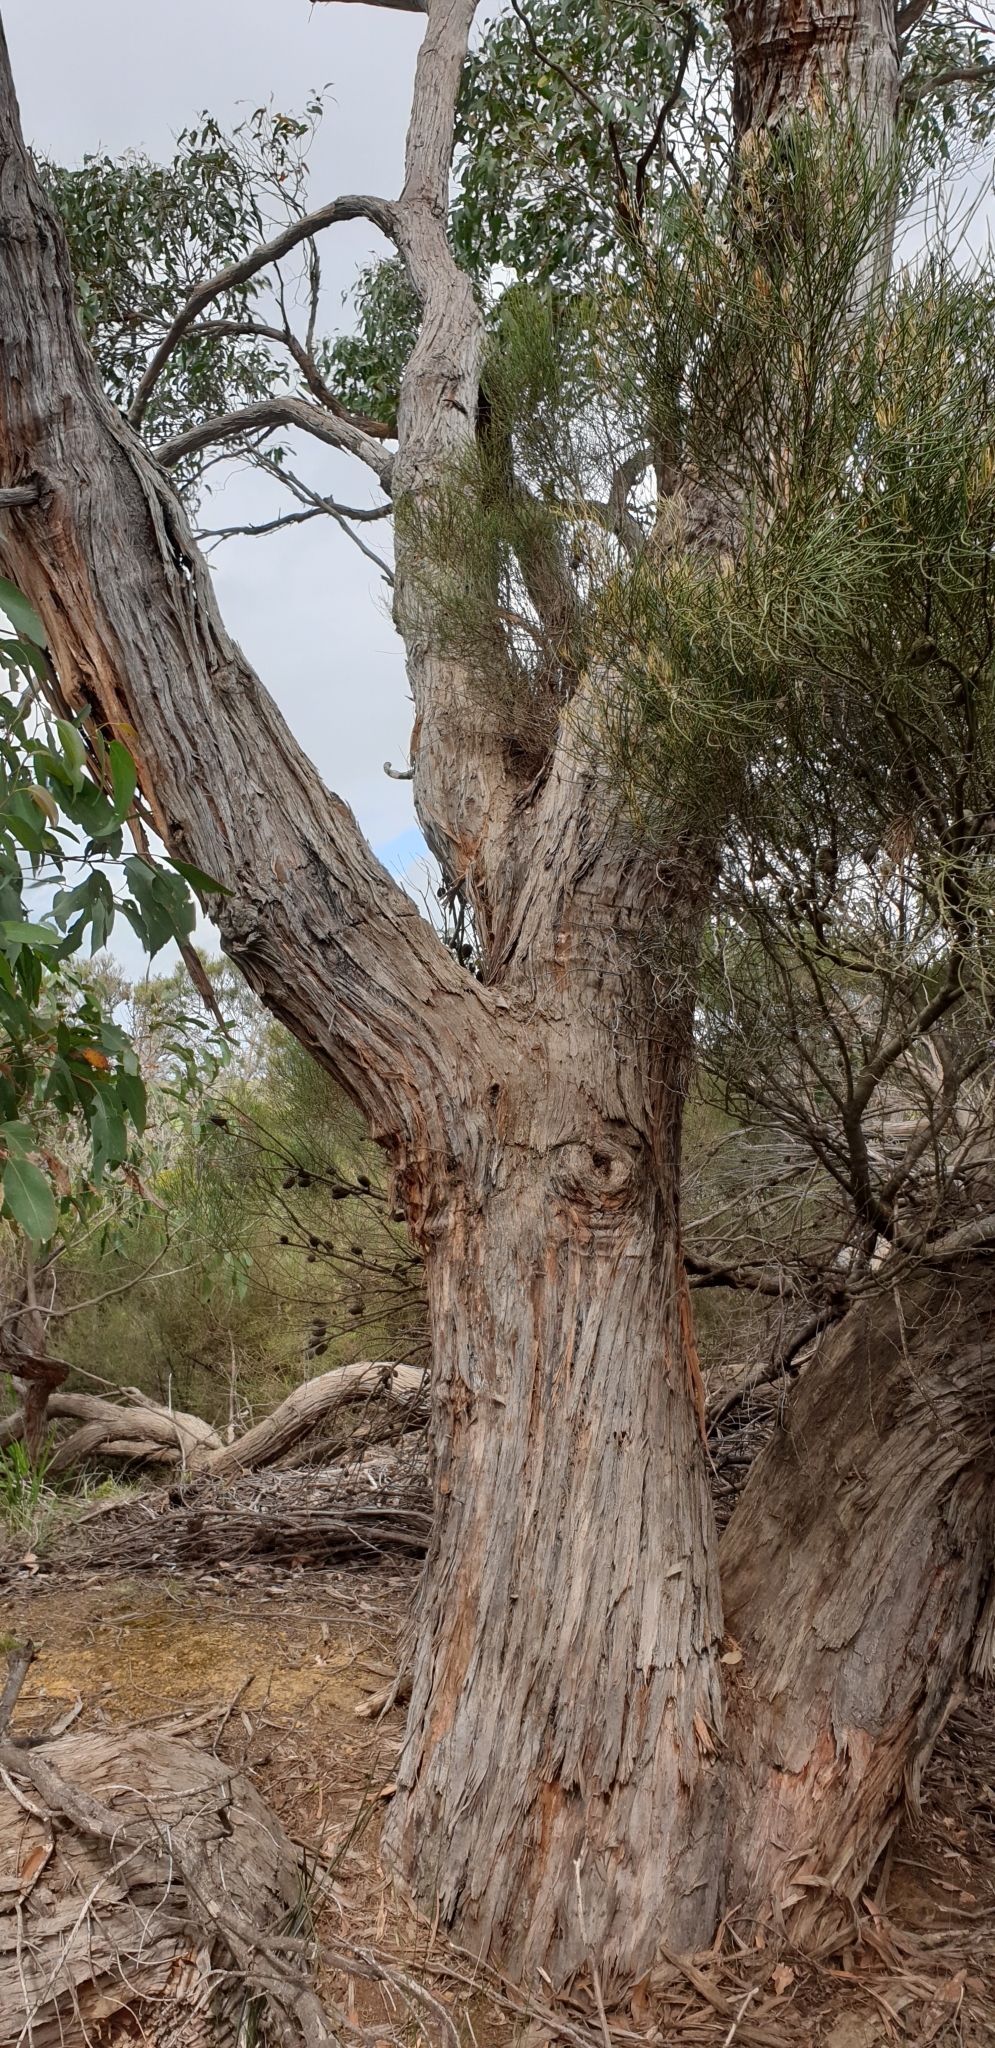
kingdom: Plantae
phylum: Tracheophyta
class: Magnoliopsida
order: Myrtales
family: Myrtaceae
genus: Eucalyptus
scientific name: Eucalyptus obliqua
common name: Messmate stringybark
